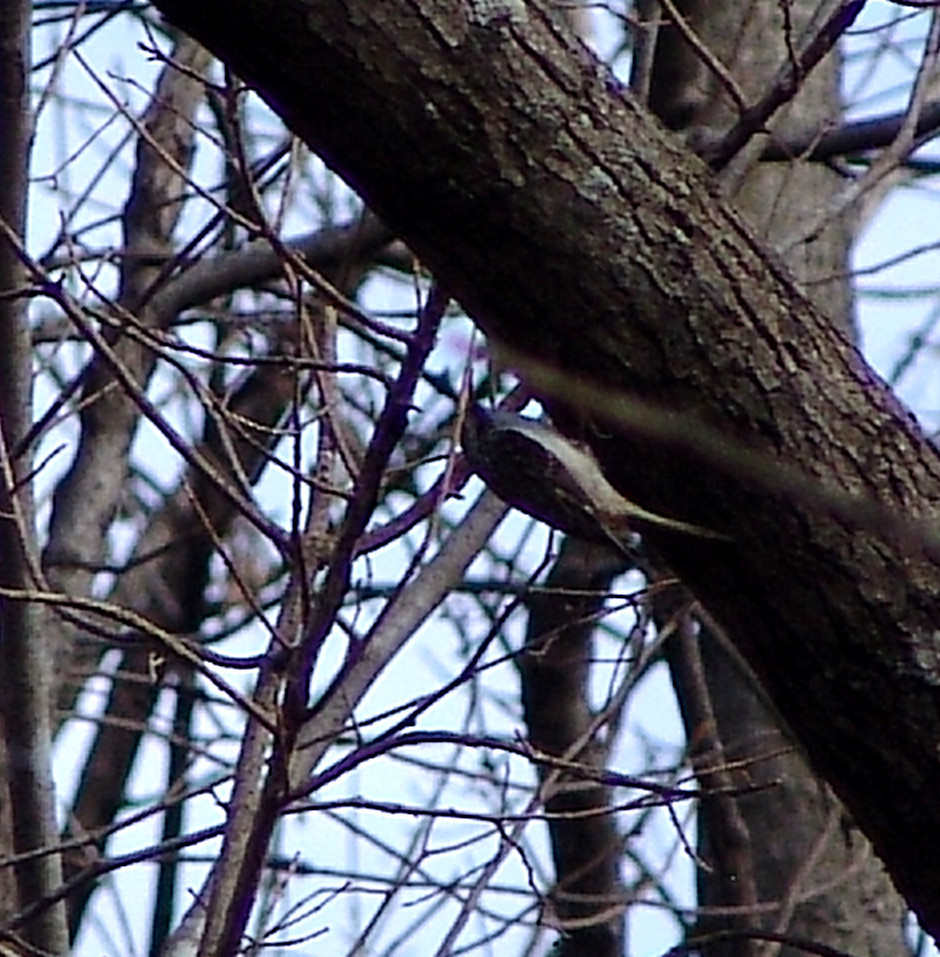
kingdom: Animalia
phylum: Chordata
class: Aves
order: Passeriformes
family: Certhiidae
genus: Certhia
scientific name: Certhia americana
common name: Brown creeper
